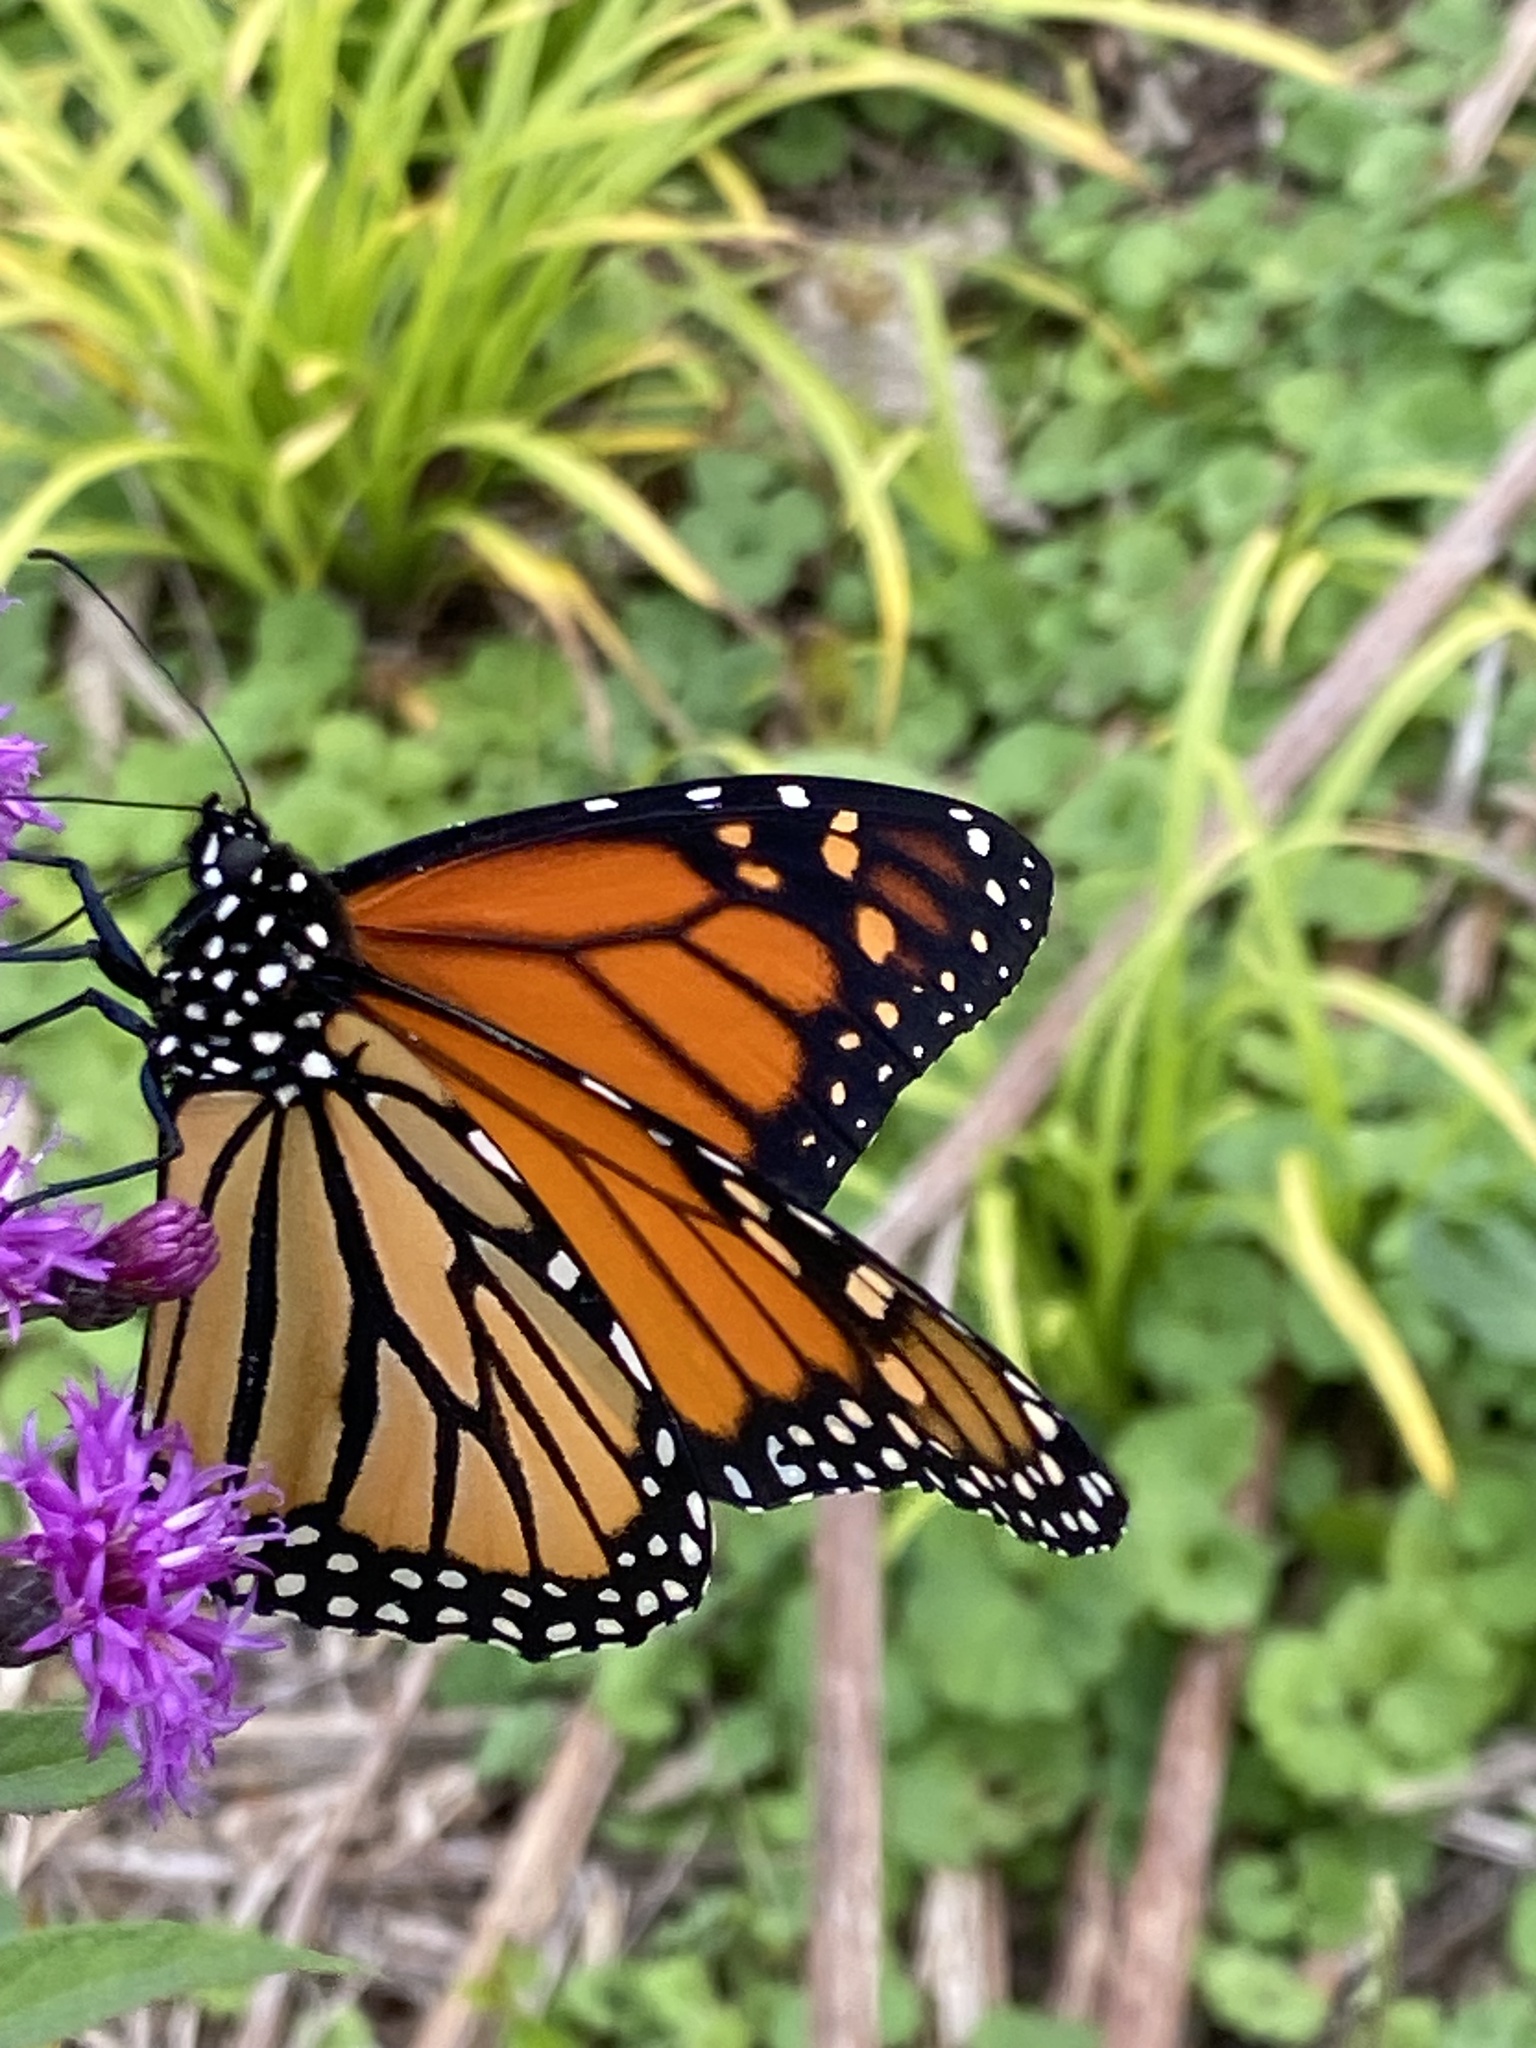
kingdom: Animalia
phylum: Arthropoda
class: Insecta
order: Lepidoptera
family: Nymphalidae
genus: Danaus
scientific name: Danaus plexippus
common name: Monarch
